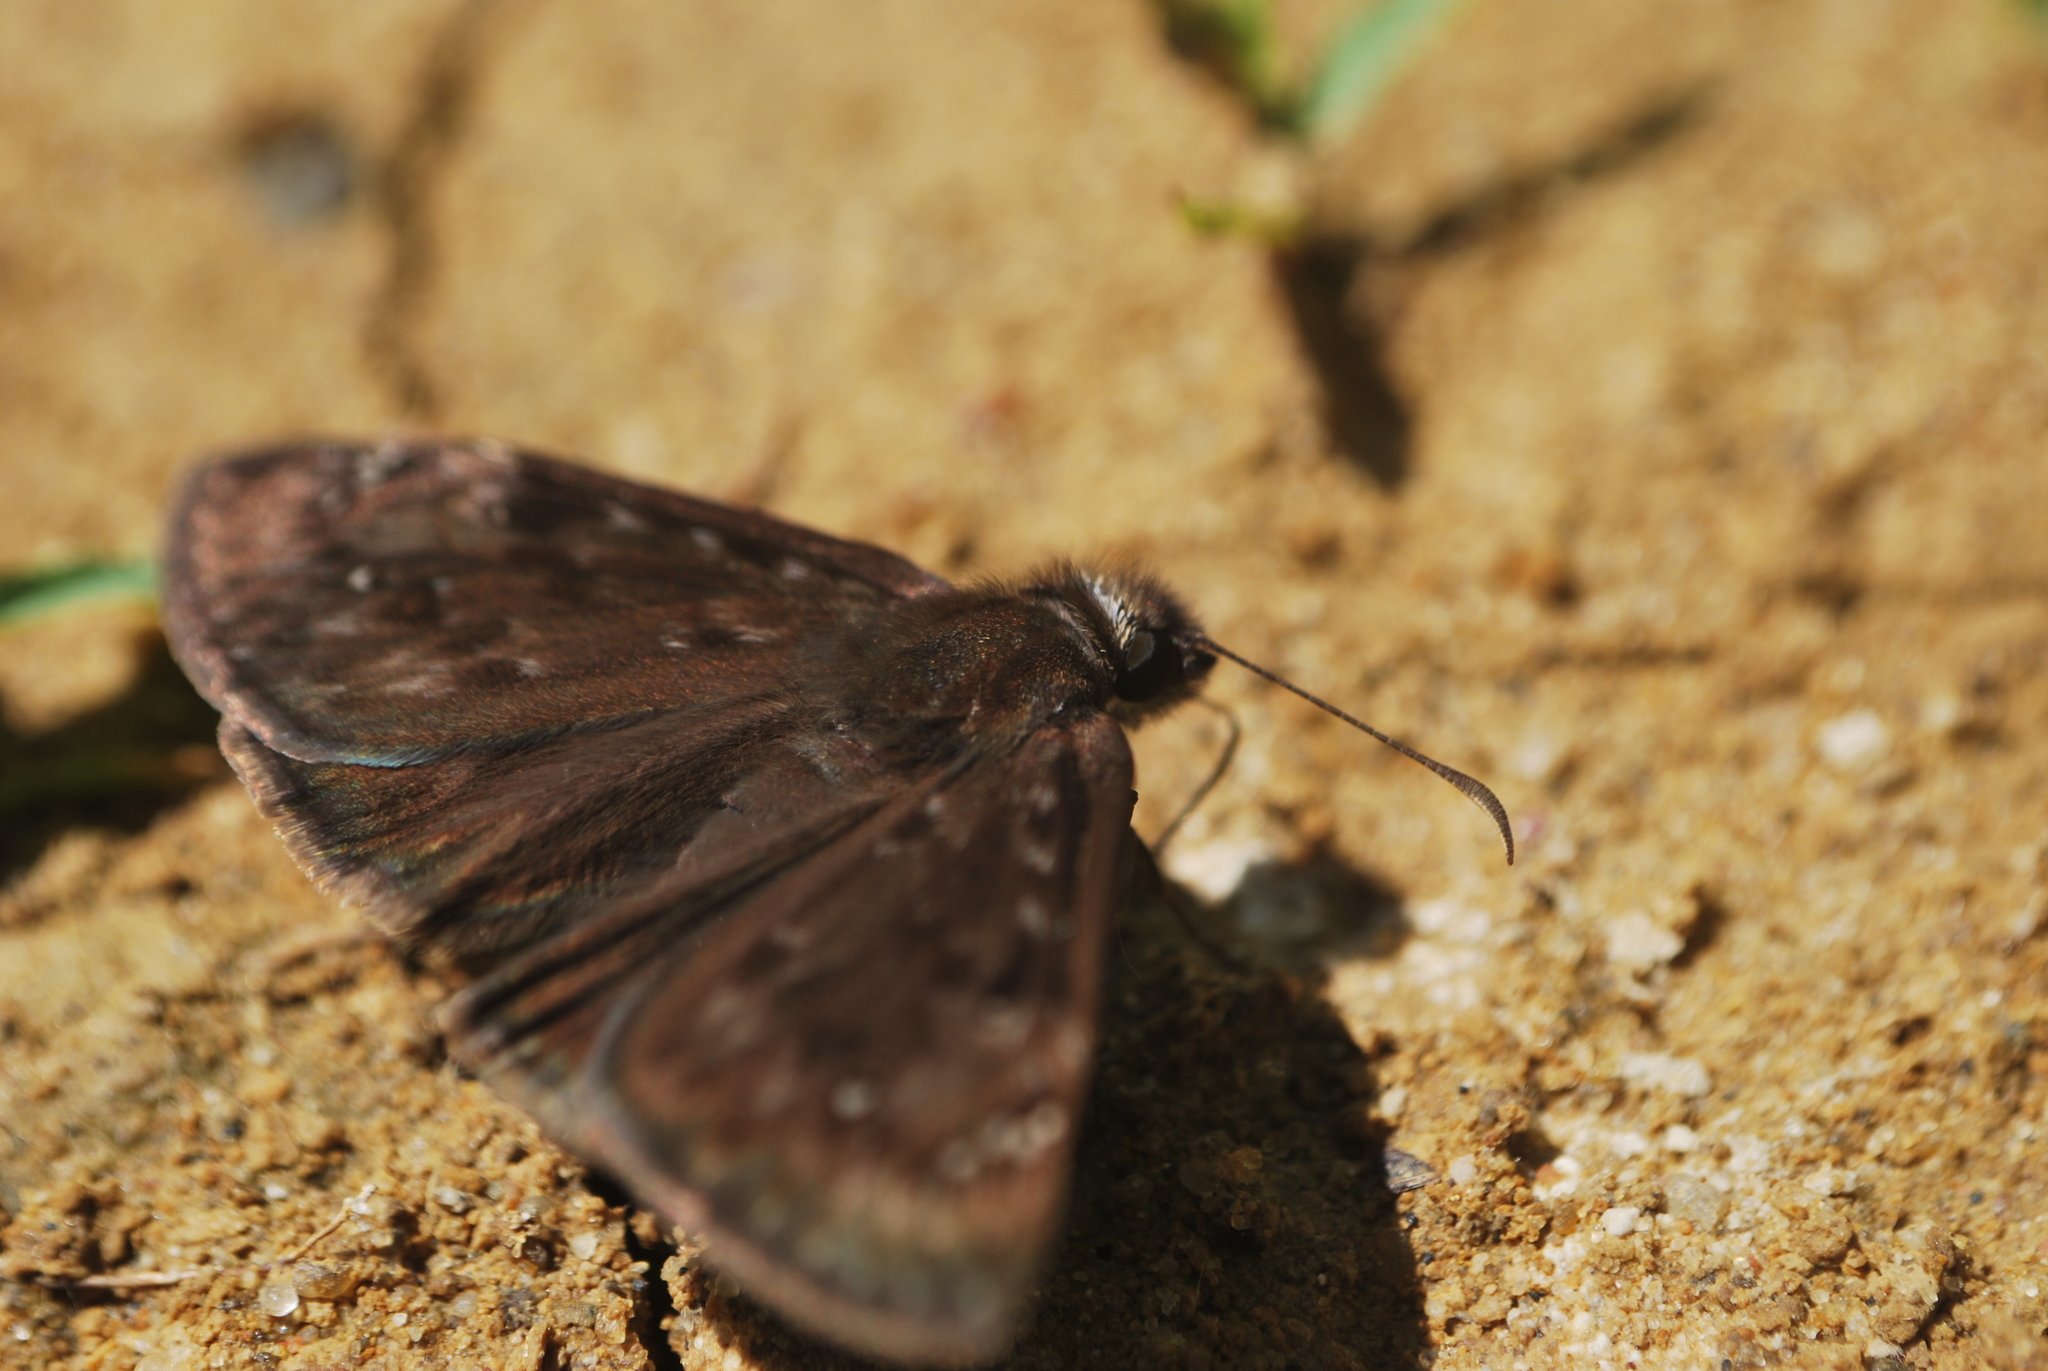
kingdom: Animalia
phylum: Arthropoda
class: Insecta
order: Lepidoptera
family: Hesperiidae
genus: Erynnis
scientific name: Erynnis horatius
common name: Horace's duskywing
